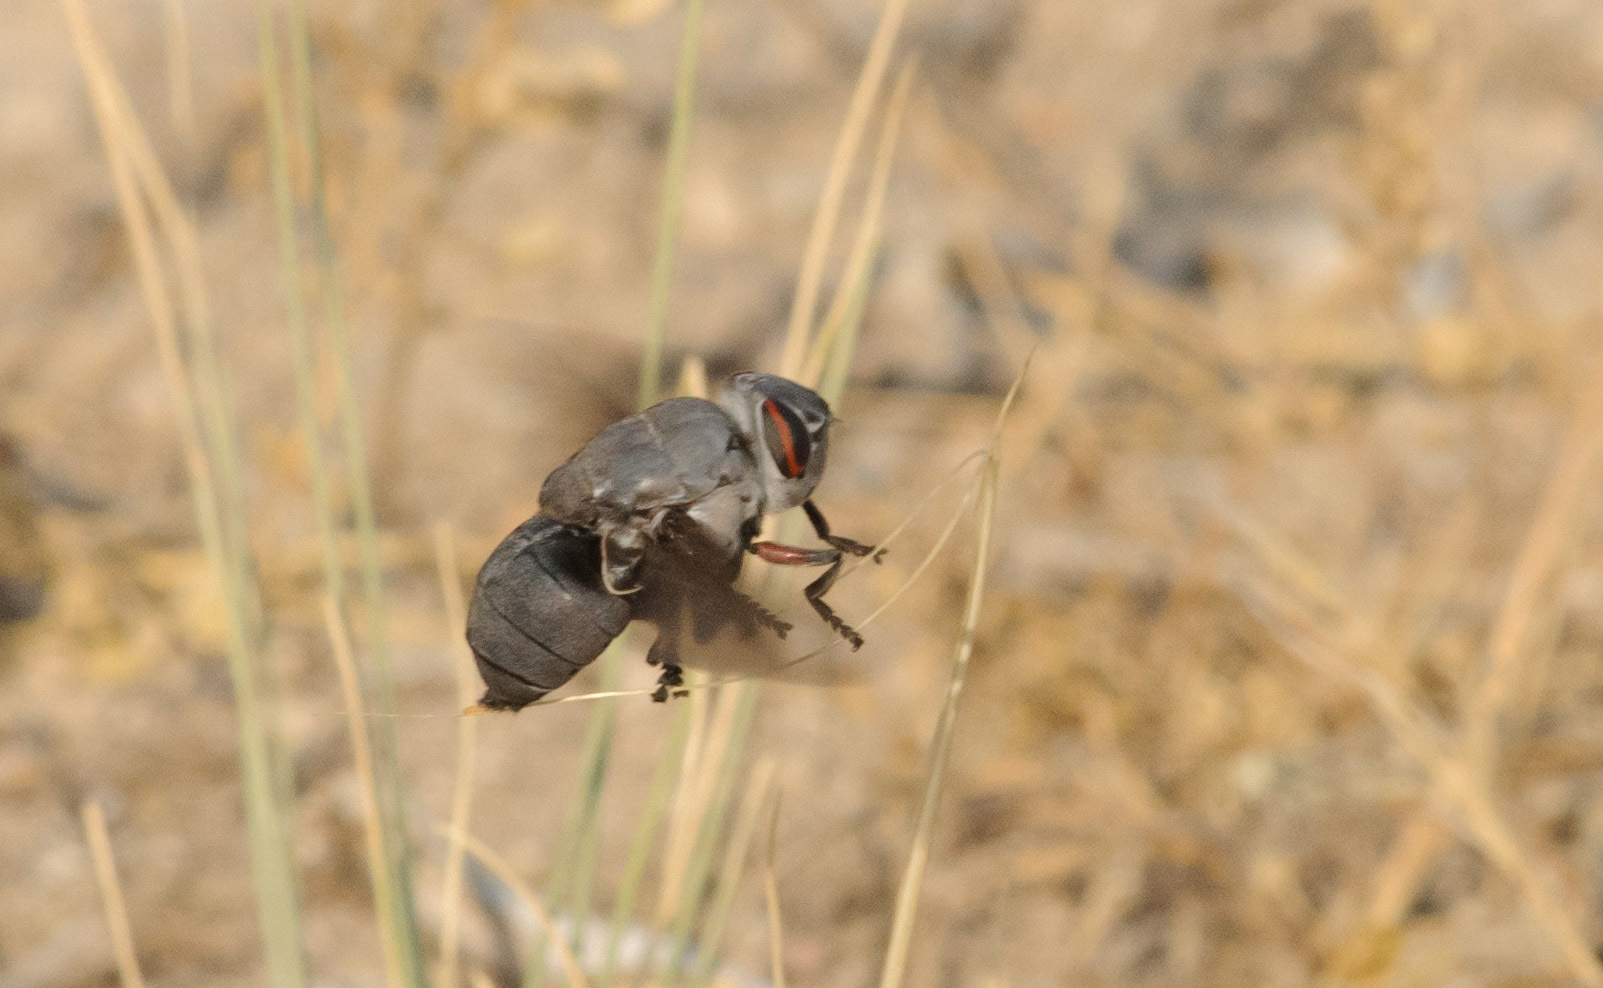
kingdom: Animalia
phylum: Arthropoda
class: Insecta
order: Diptera
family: Oestridae
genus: Cuterebra
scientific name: Cuterebra ruficrus
